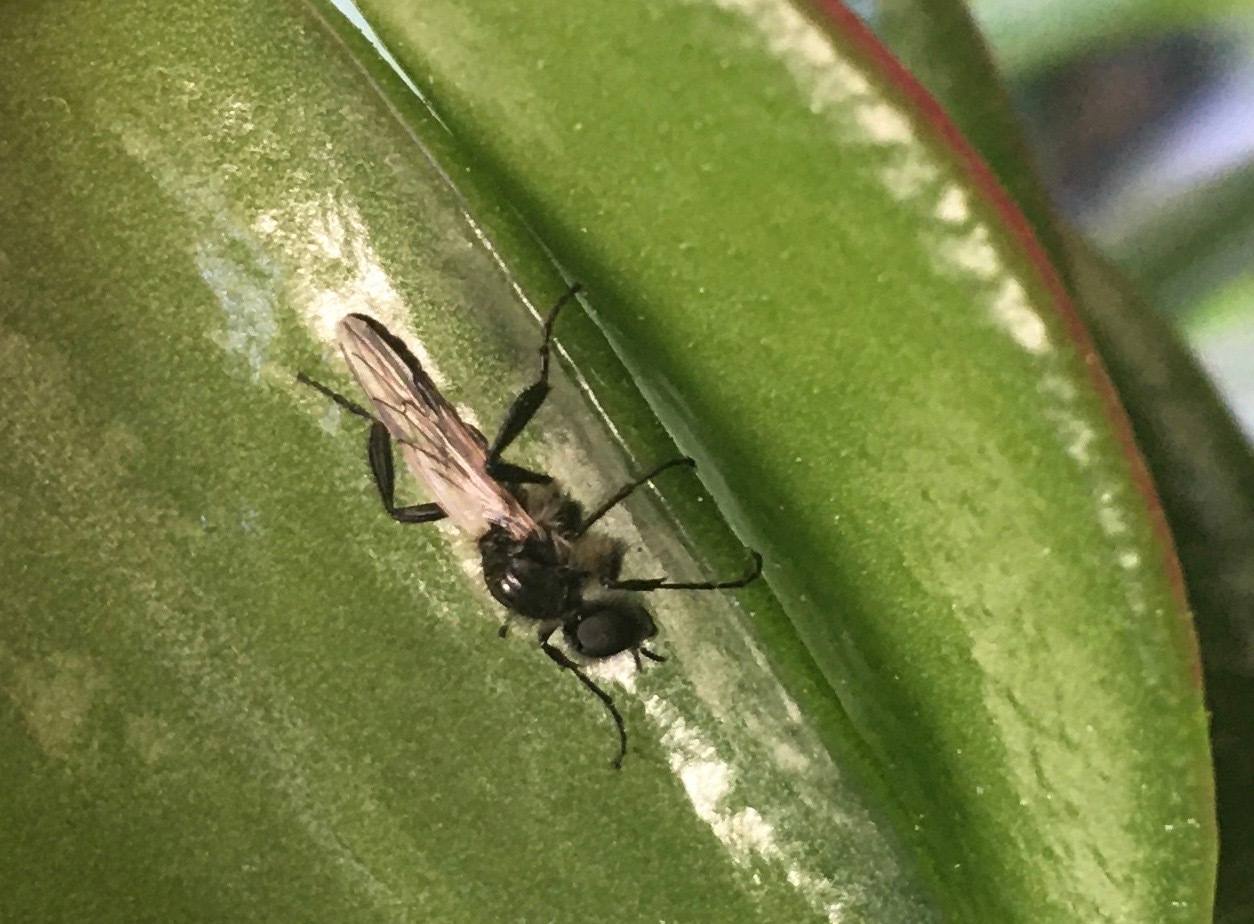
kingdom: Animalia
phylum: Arthropoda
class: Insecta
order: Diptera
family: Bibionidae
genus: Bibio
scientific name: Bibio albipennis
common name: White-winged march fly
